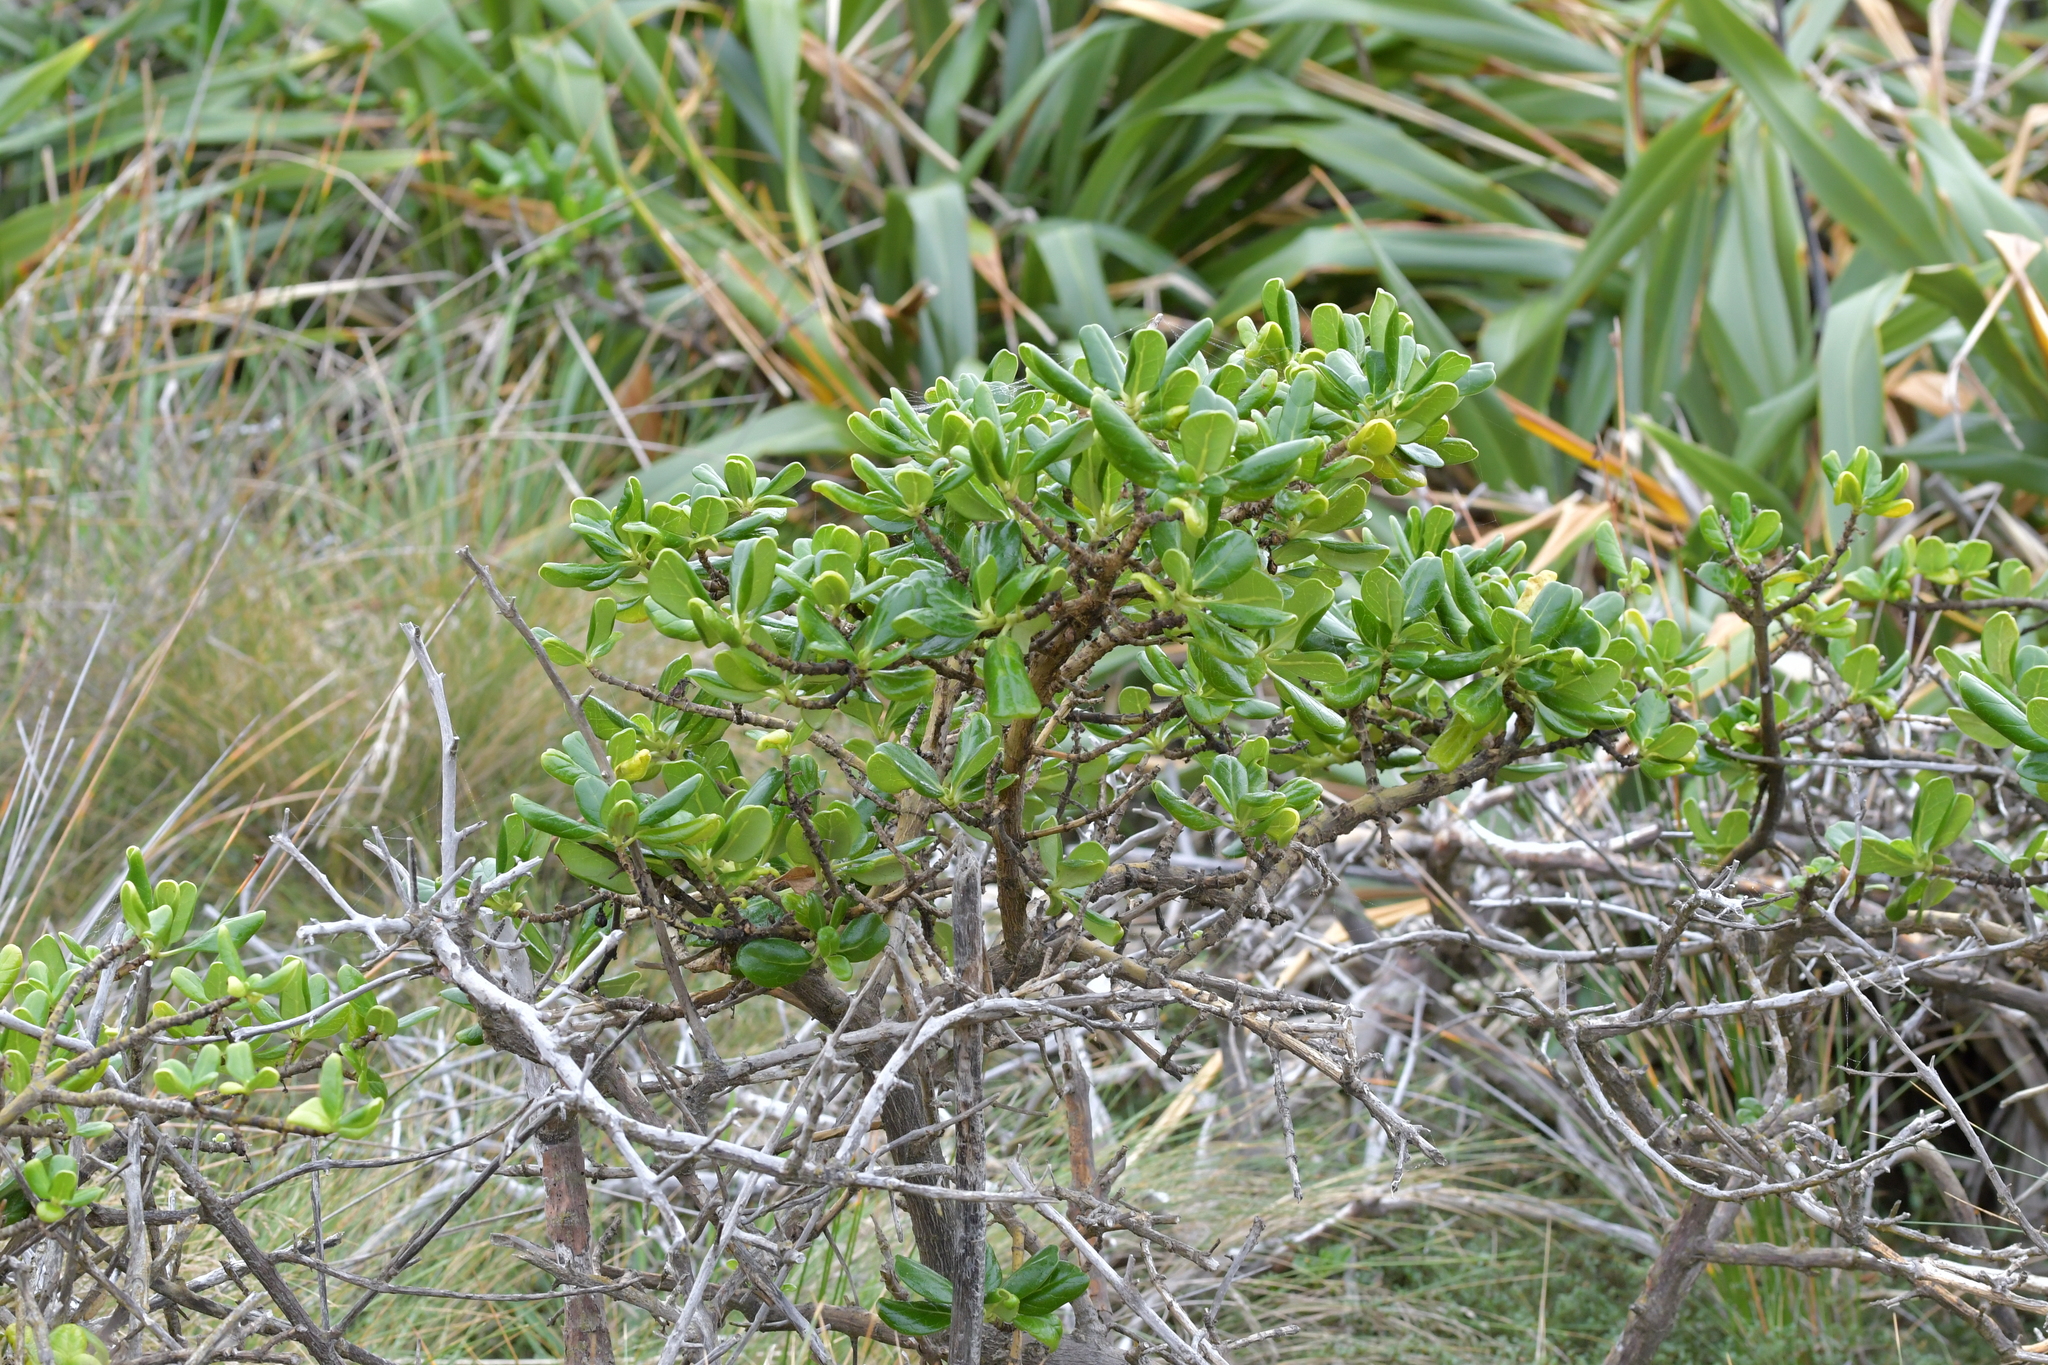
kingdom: Plantae
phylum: Tracheophyta
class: Magnoliopsida
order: Gentianales
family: Rubiaceae
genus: Coprosma
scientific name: Coprosma repens
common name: Tree bedstraw
